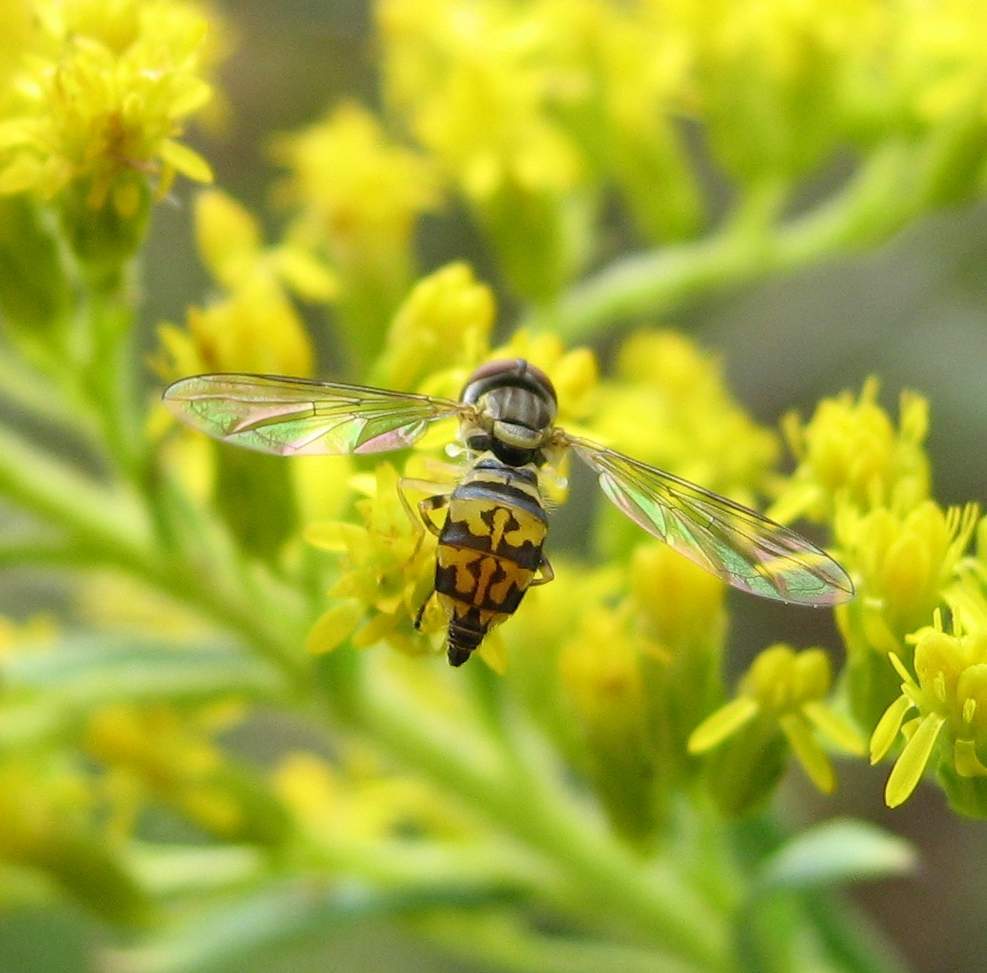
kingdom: Animalia
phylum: Arthropoda
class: Insecta
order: Diptera
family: Syrphidae
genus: Toxomerus
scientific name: Toxomerus geminatus
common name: Eastern calligrapher
